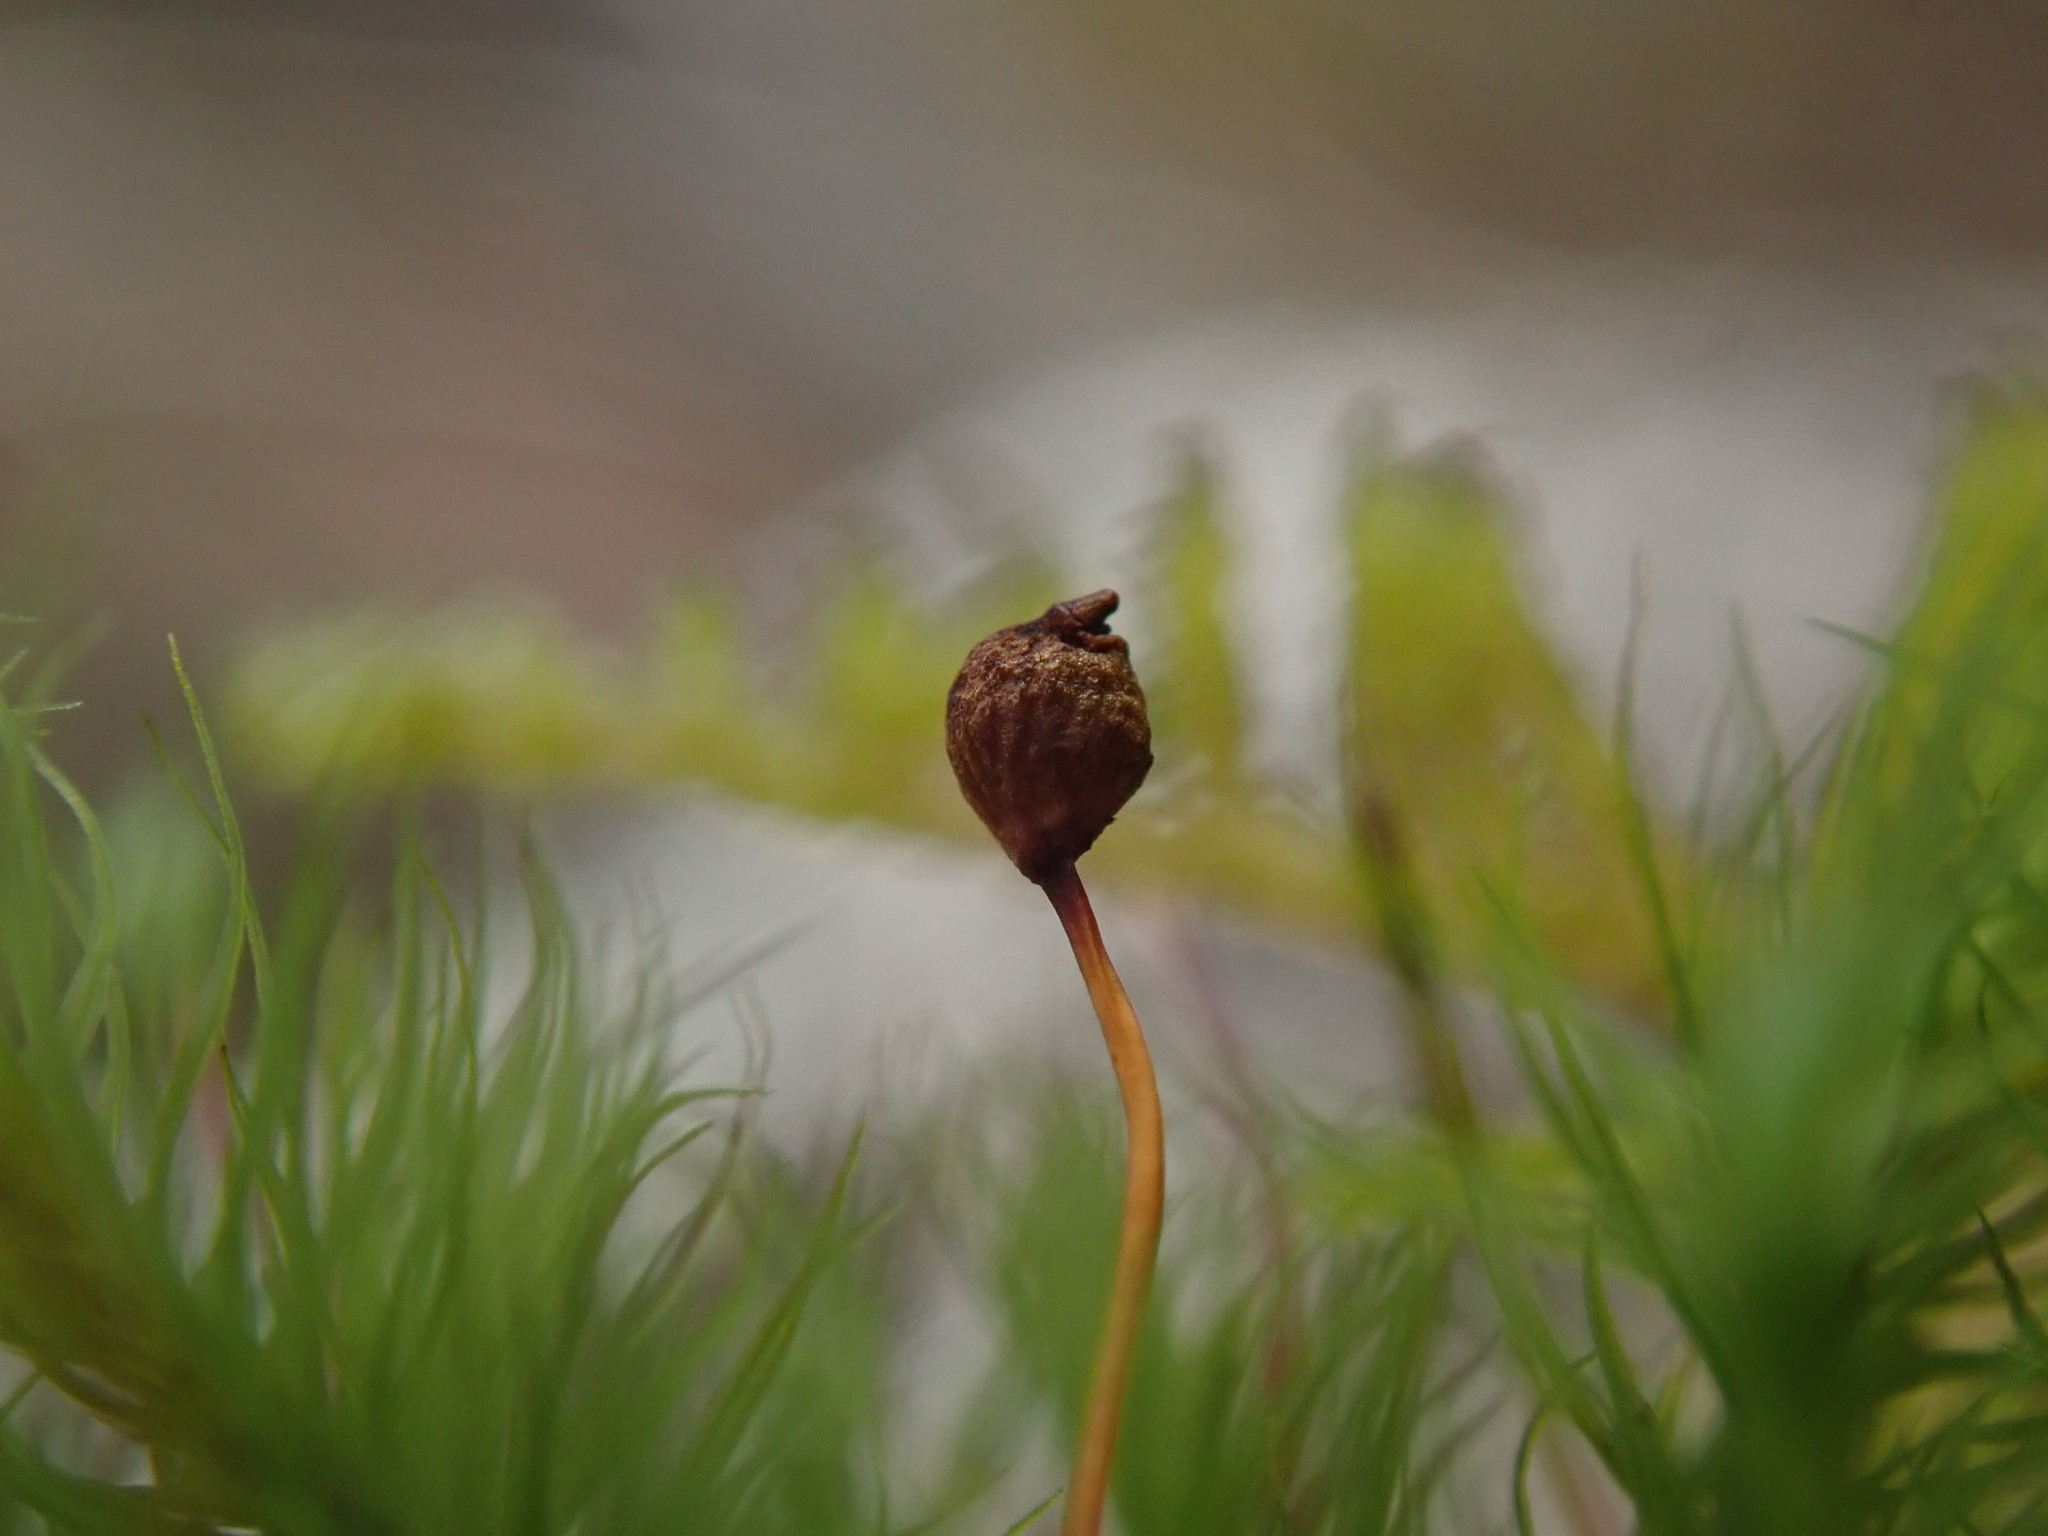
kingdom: Plantae
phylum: Bryophyta
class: Bryopsida
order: Bartramiales
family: Bartramiaceae
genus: Bartramia
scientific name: Bartramia ithyphylla
